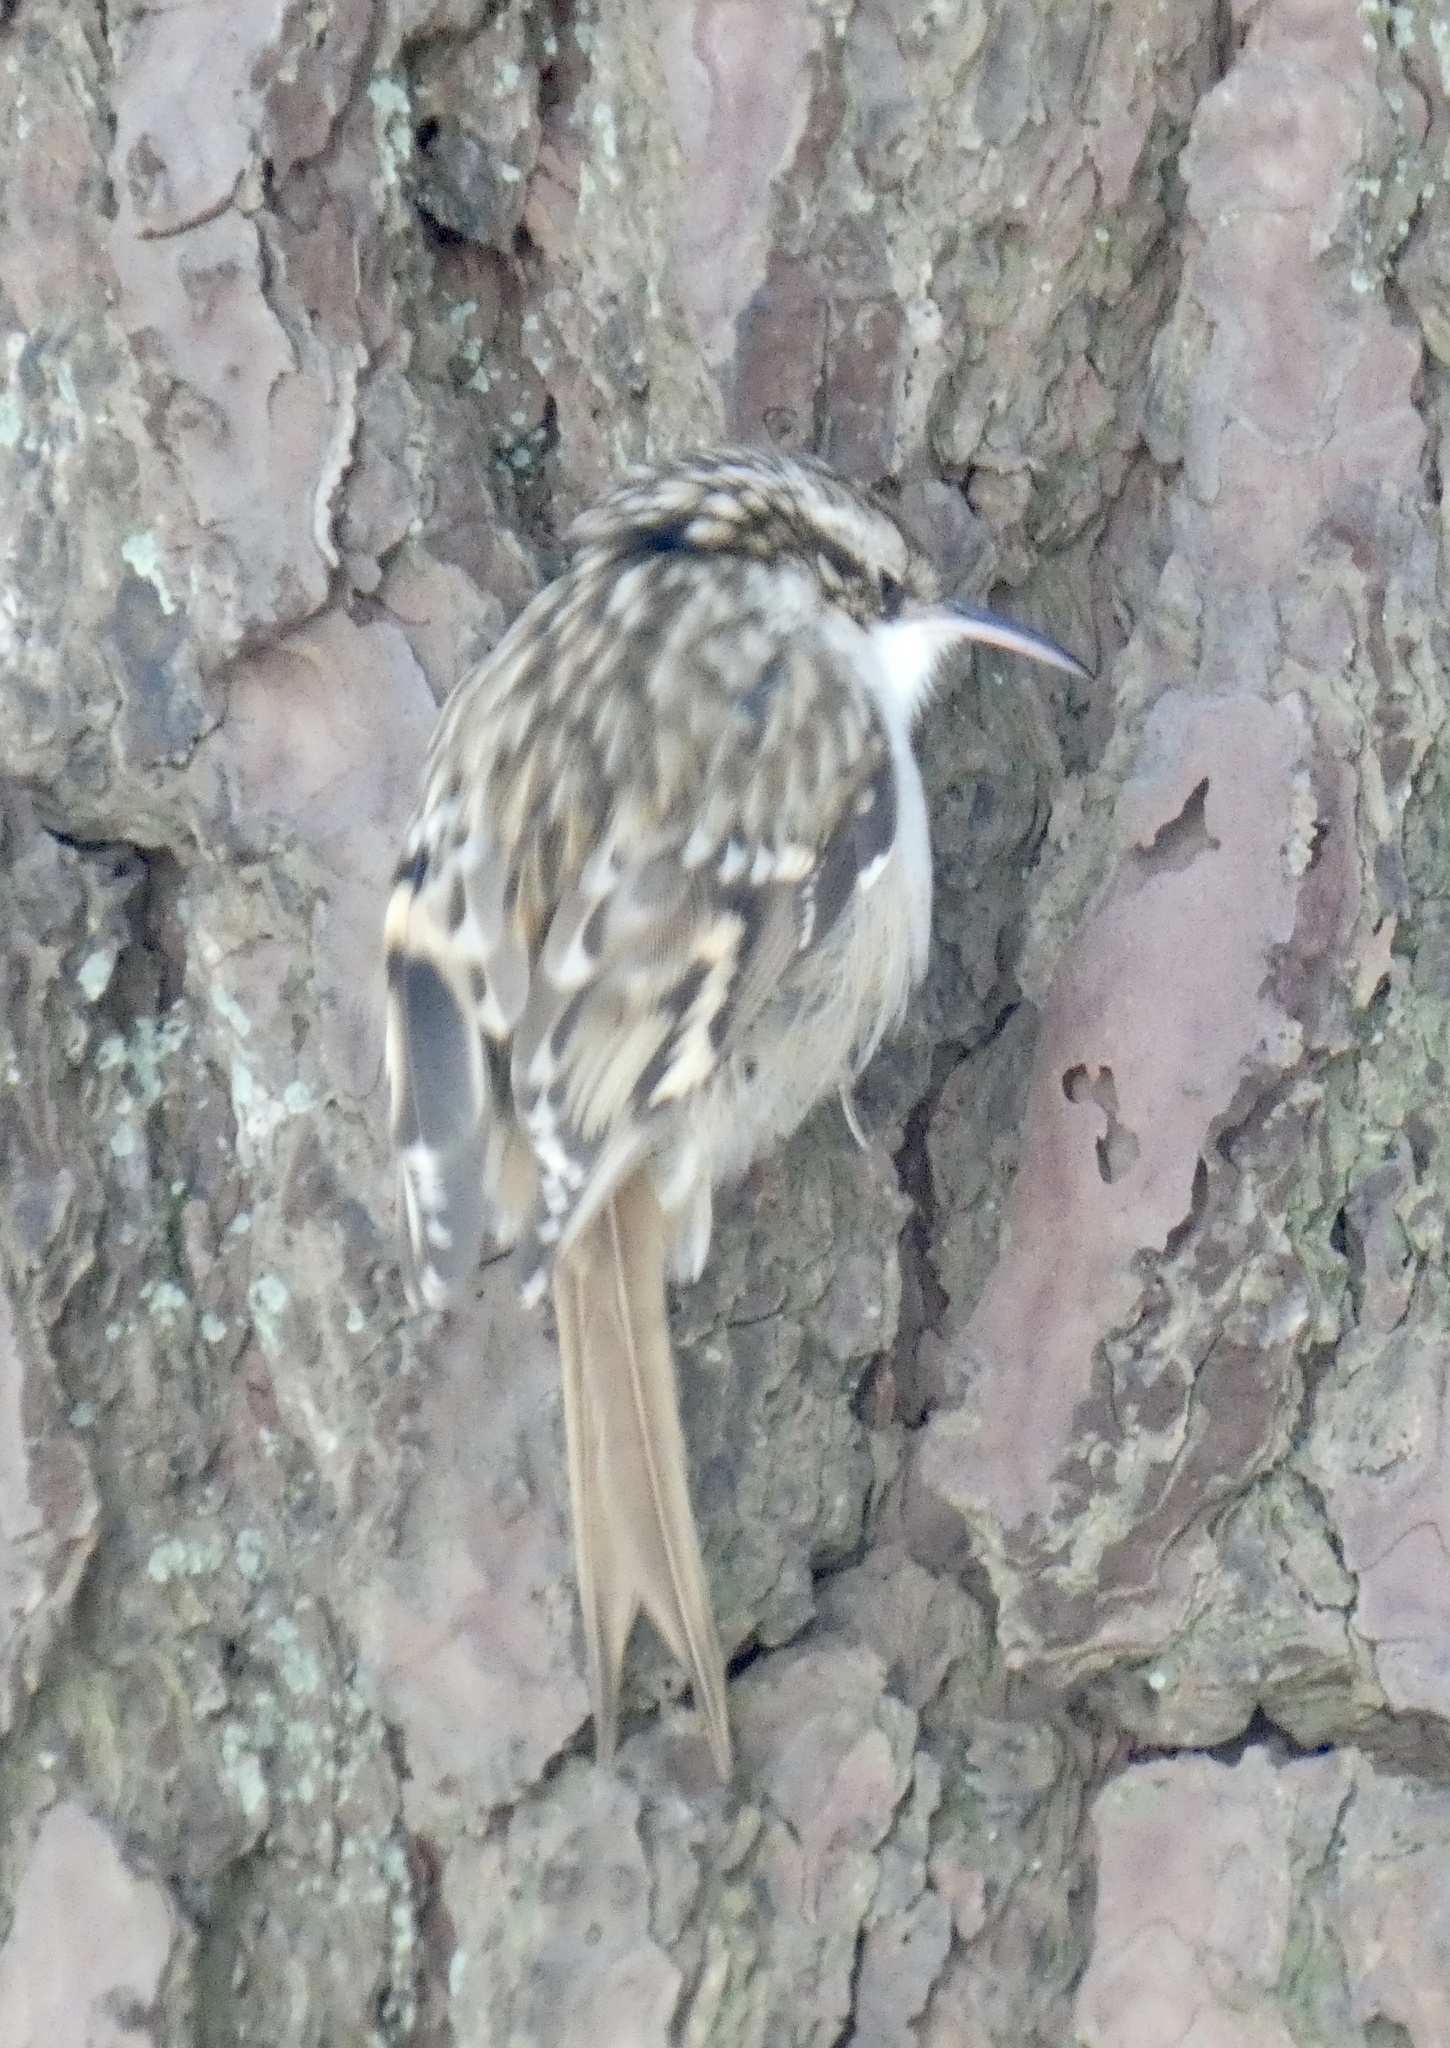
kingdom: Animalia
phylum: Chordata
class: Aves
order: Passeriformes
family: Certhiidae
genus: Certhia
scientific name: Certhia brachydactyla
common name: Short-toed treecreeper
